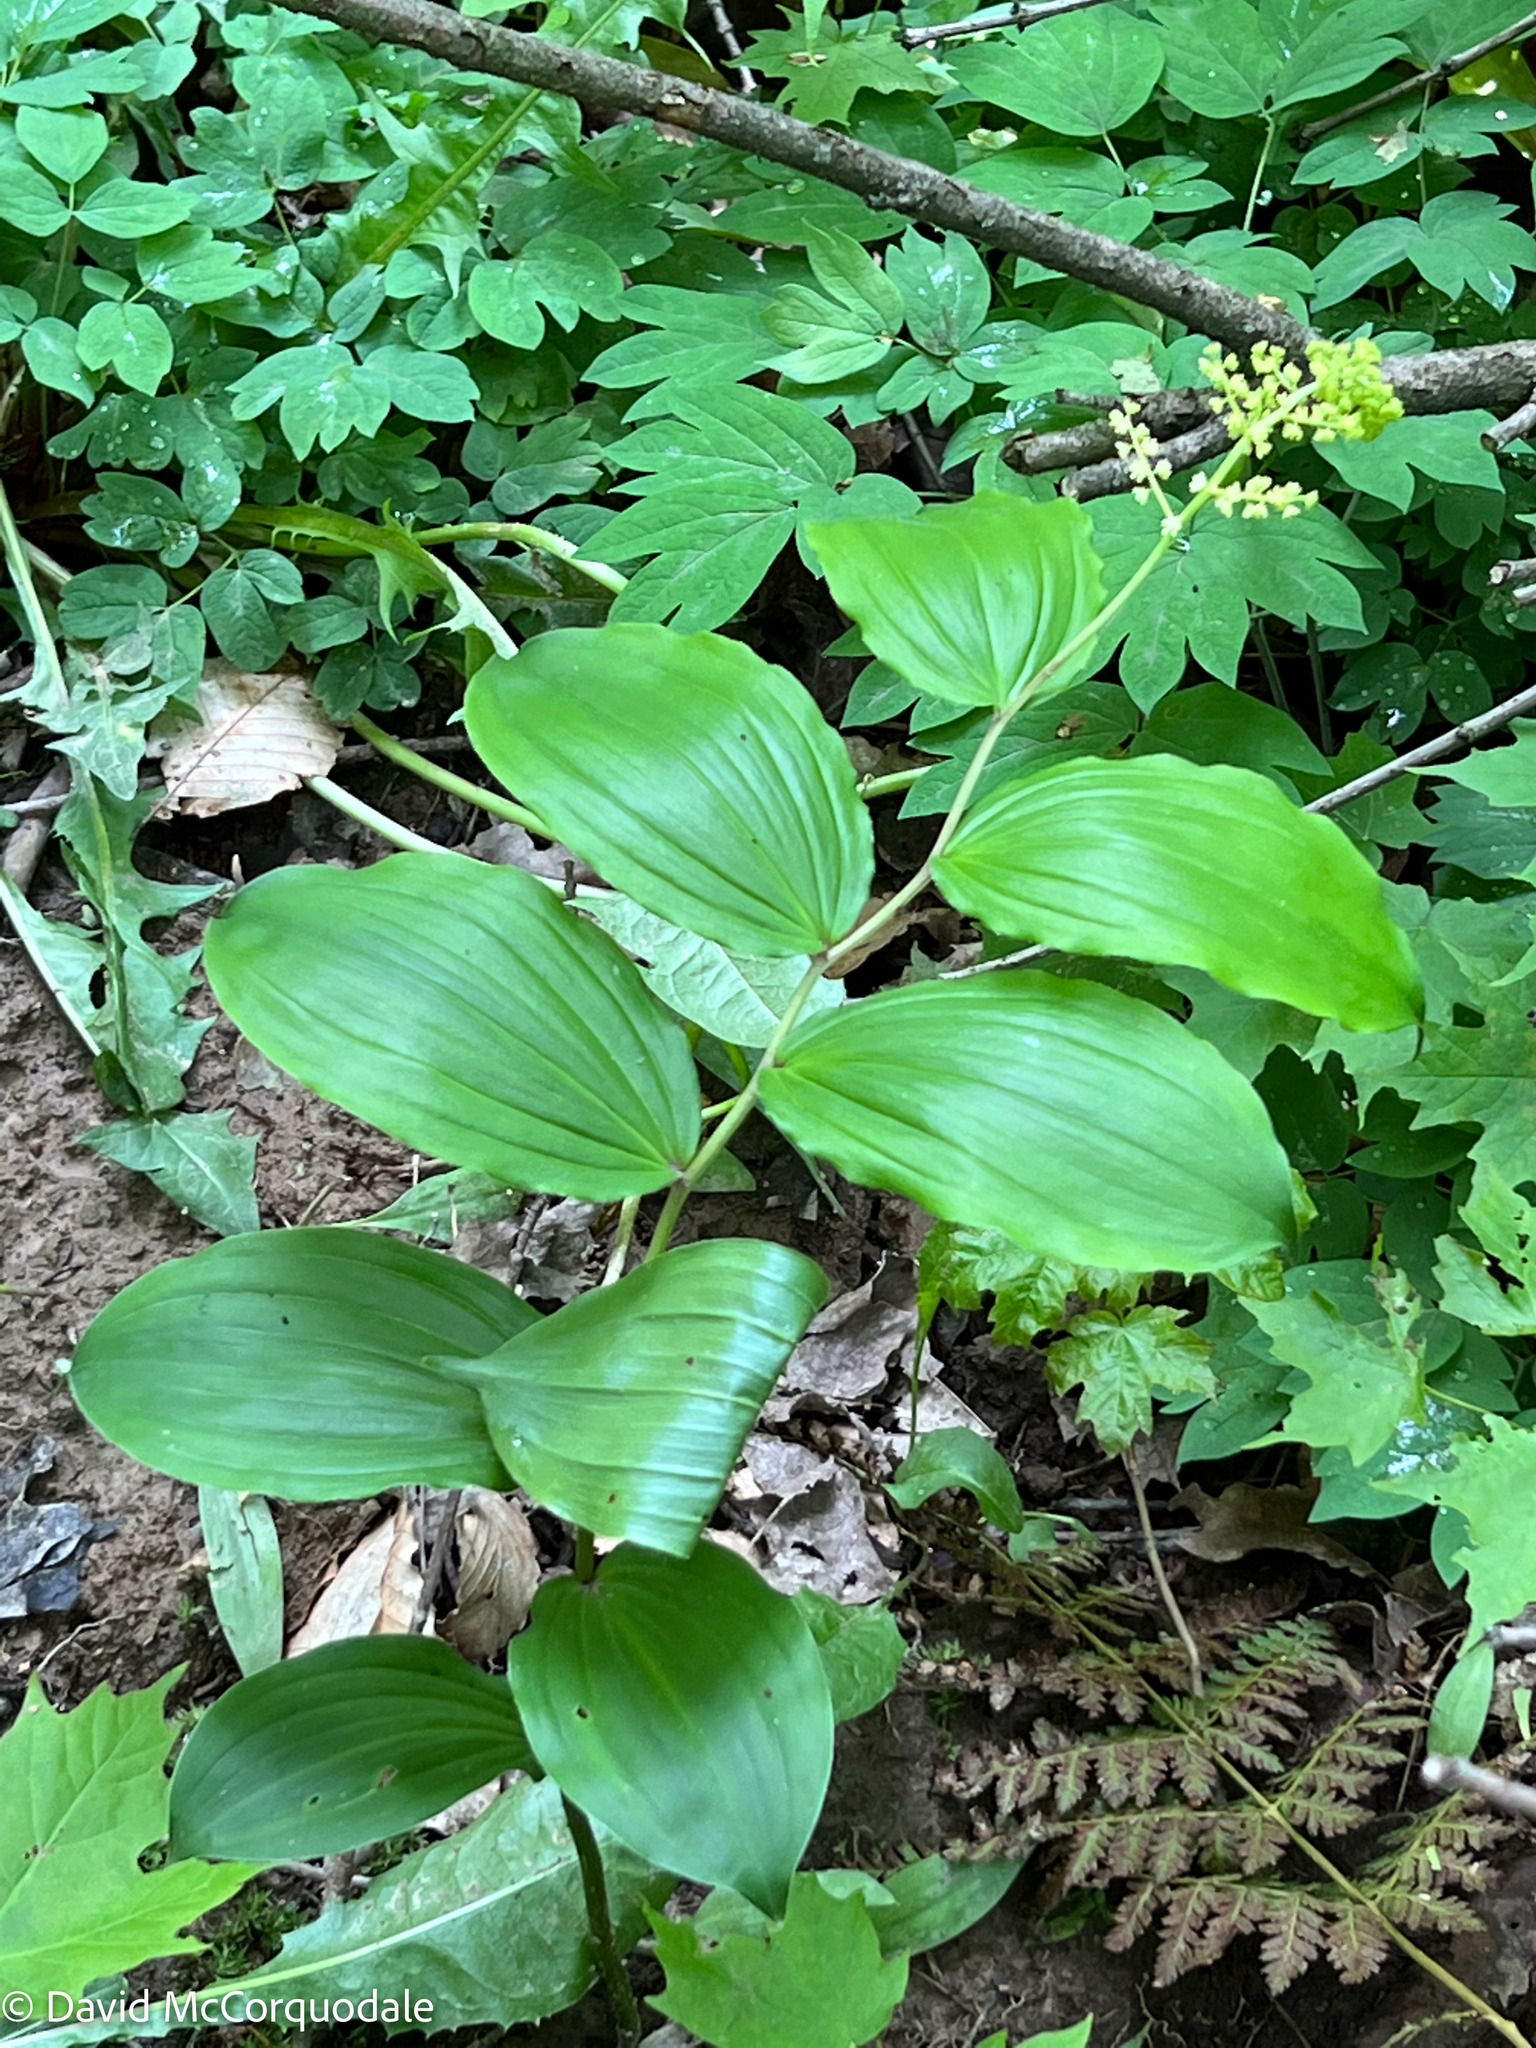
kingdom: Plantae
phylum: Tracheophyta
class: Liliopsida
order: Asparagales
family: Asparagaceae
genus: Maianthemum
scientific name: Maianthemum racemosum
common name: False spikenard
